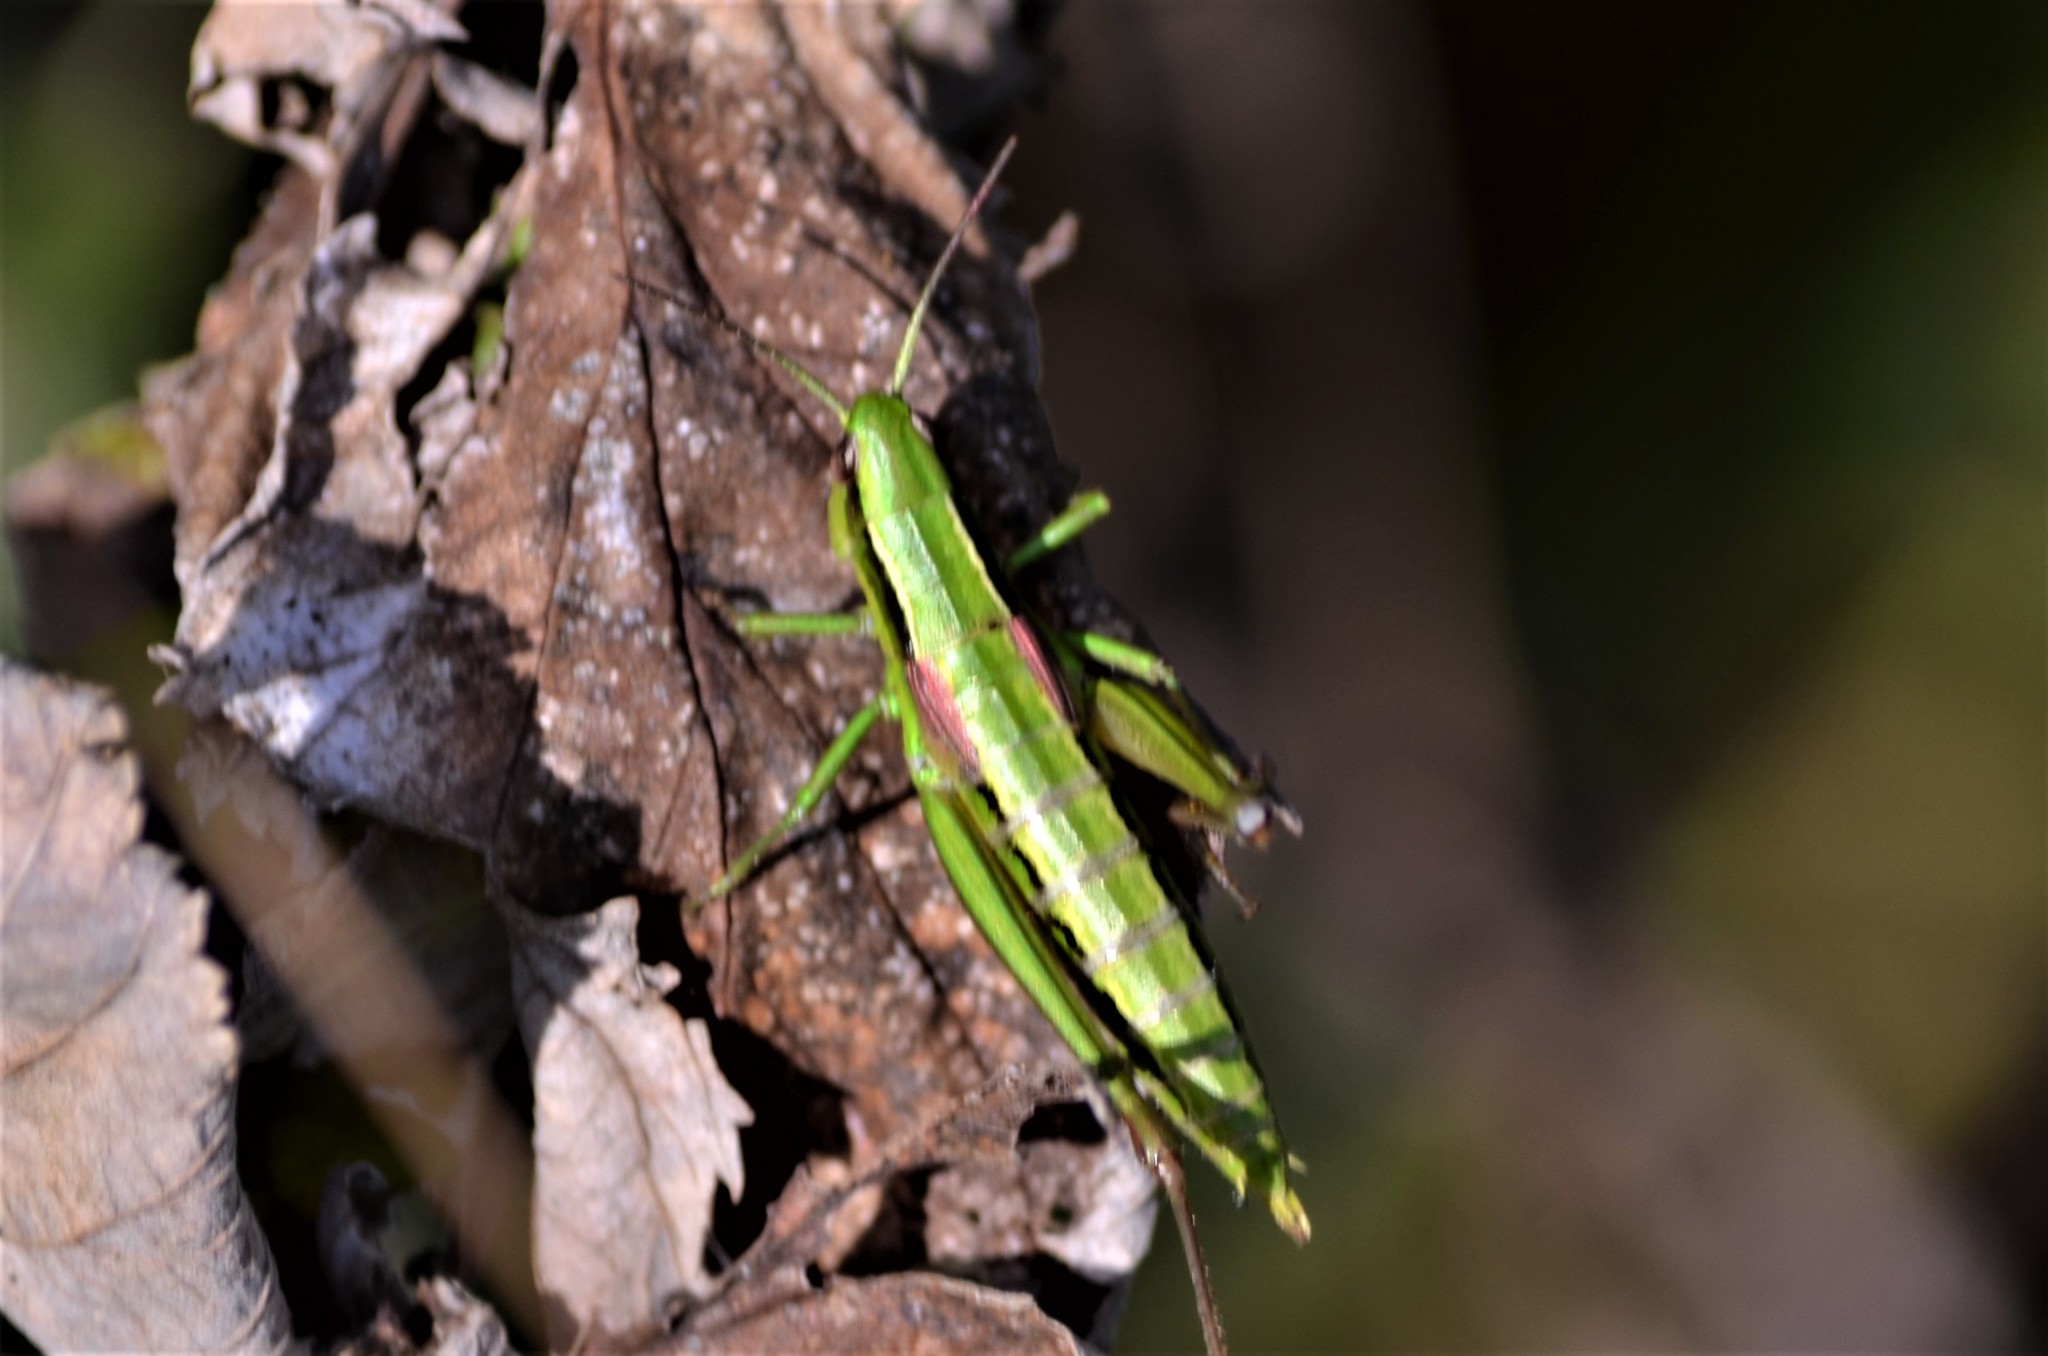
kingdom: Animalia
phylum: Arthropoda
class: Insecta
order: Orthoptera
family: Acrididae
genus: Euthystira
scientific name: Euthystira brachyptera
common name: Small gold grasshopper
